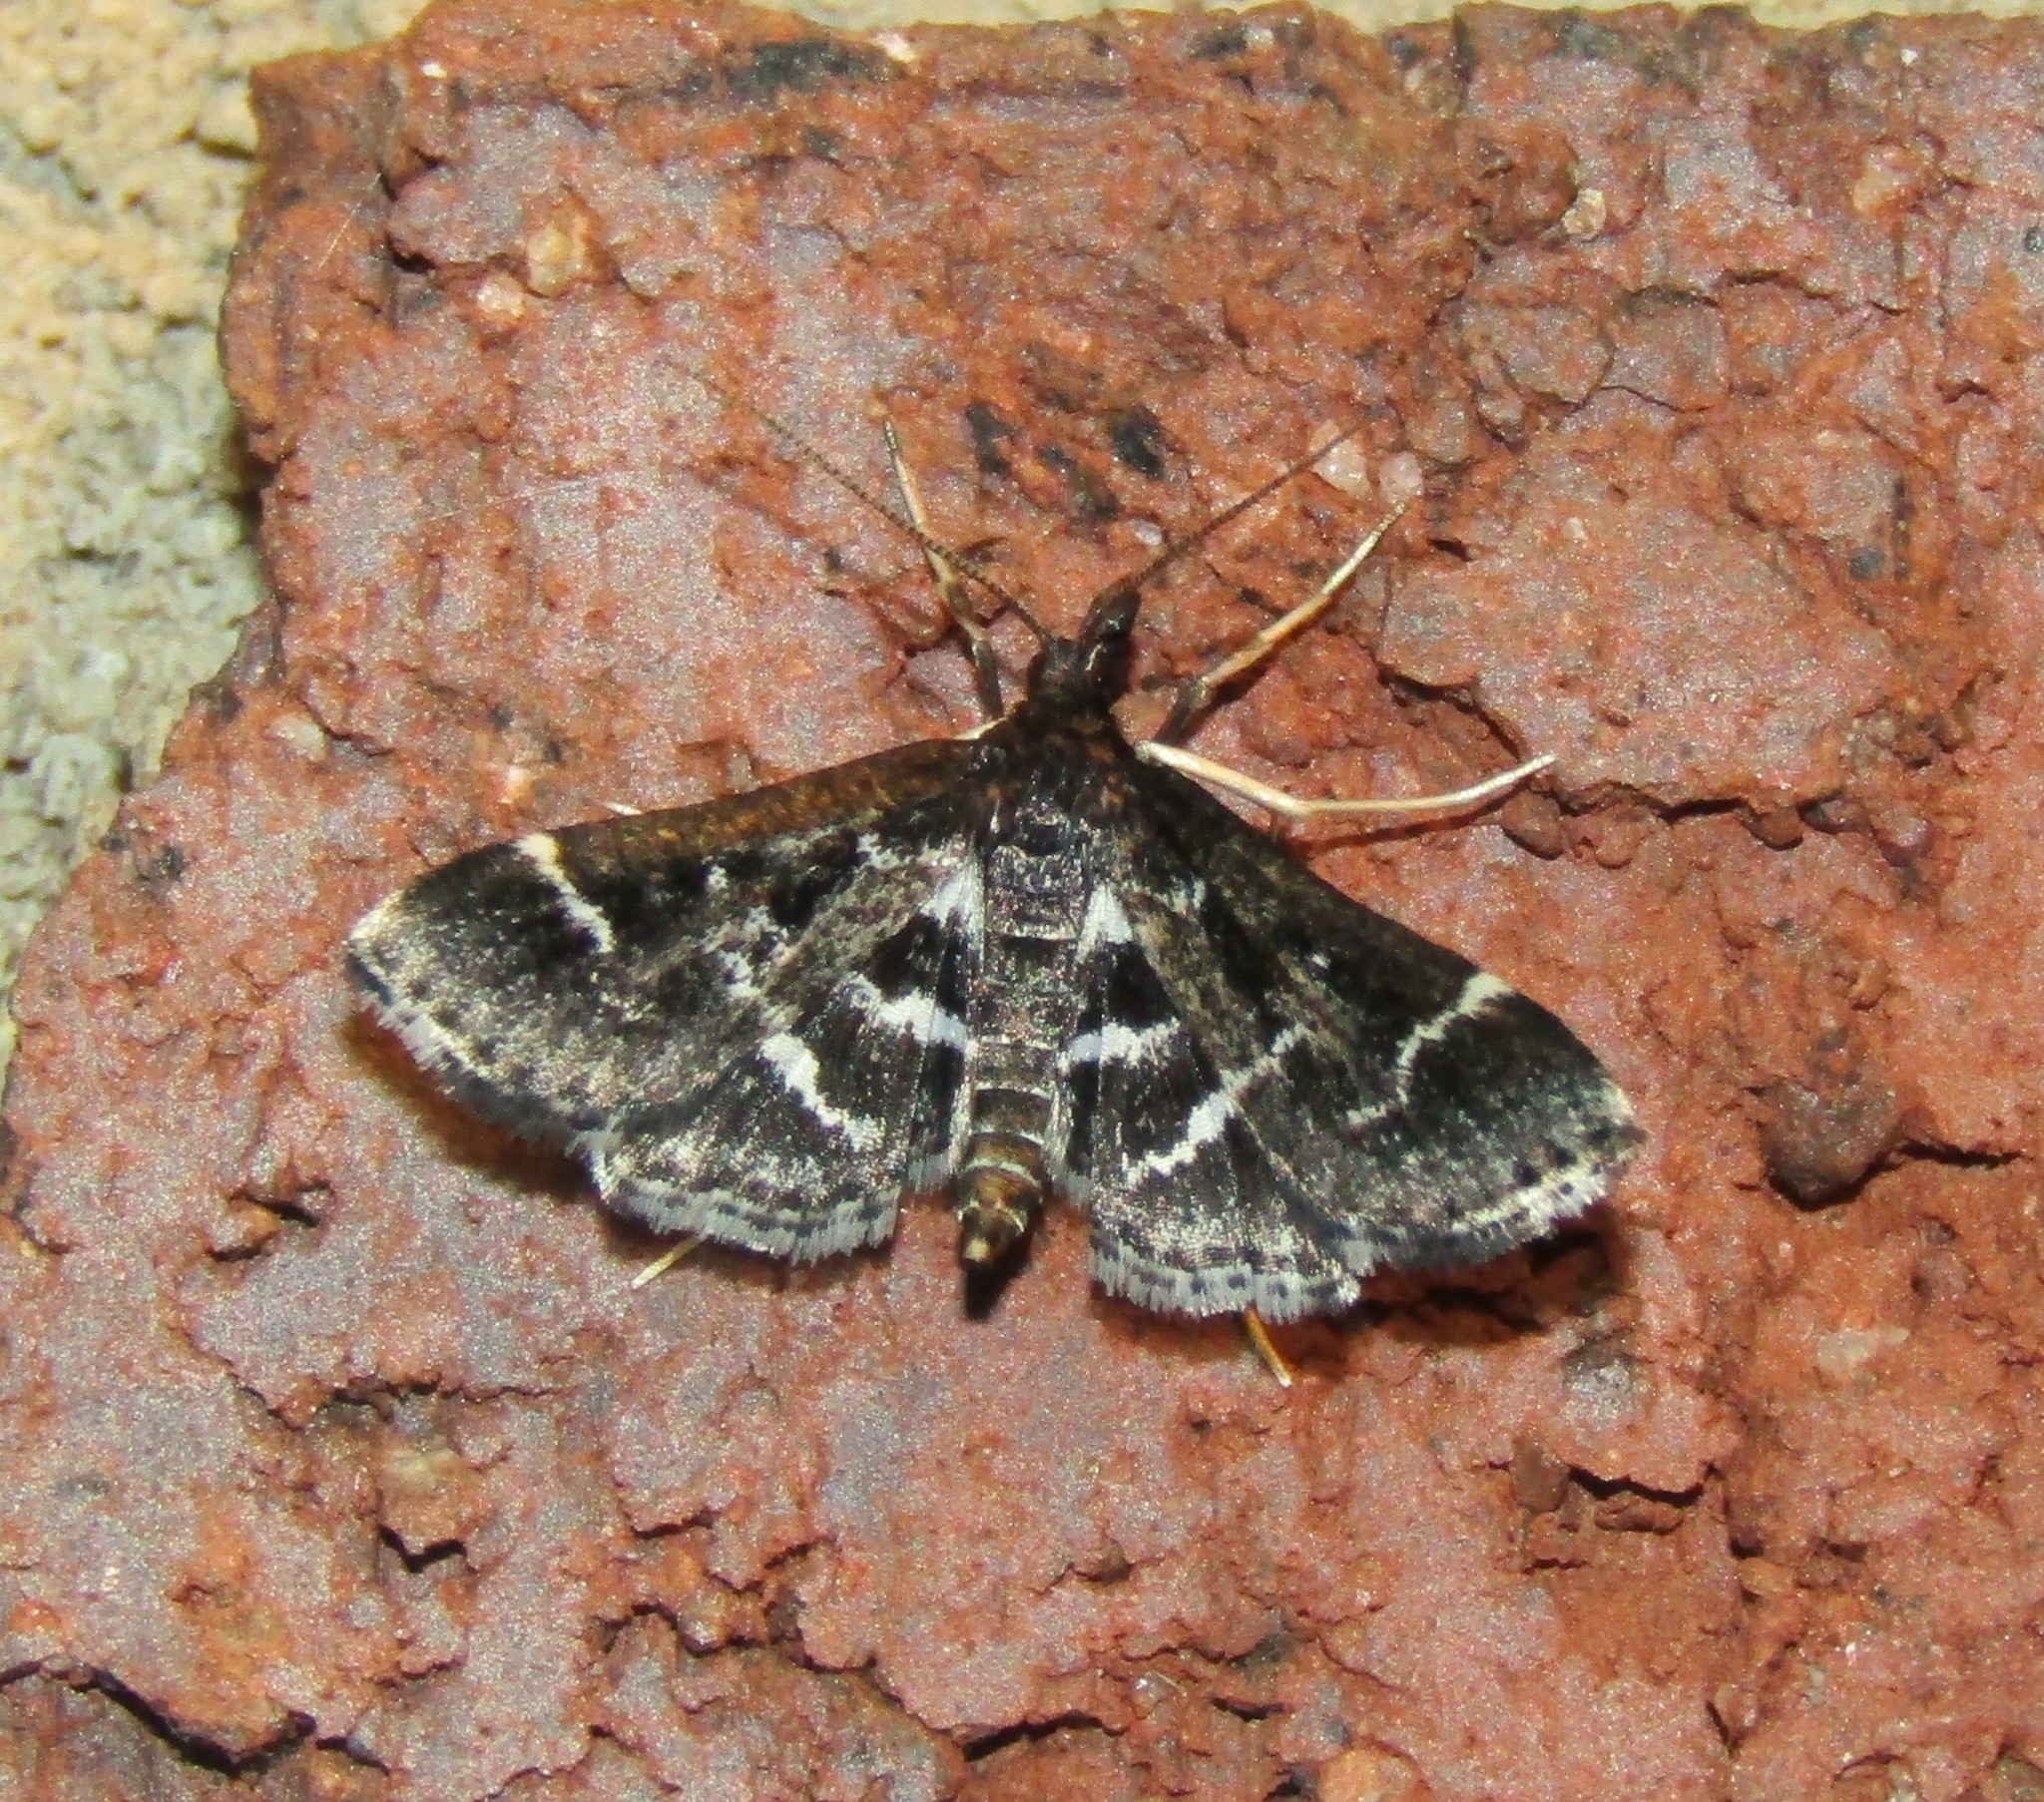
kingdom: Animalia
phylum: Arthropoda
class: Insecta
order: Lepidoptera
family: Crambidae
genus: Diasemiodes
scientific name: Diasemiodes janassialis
